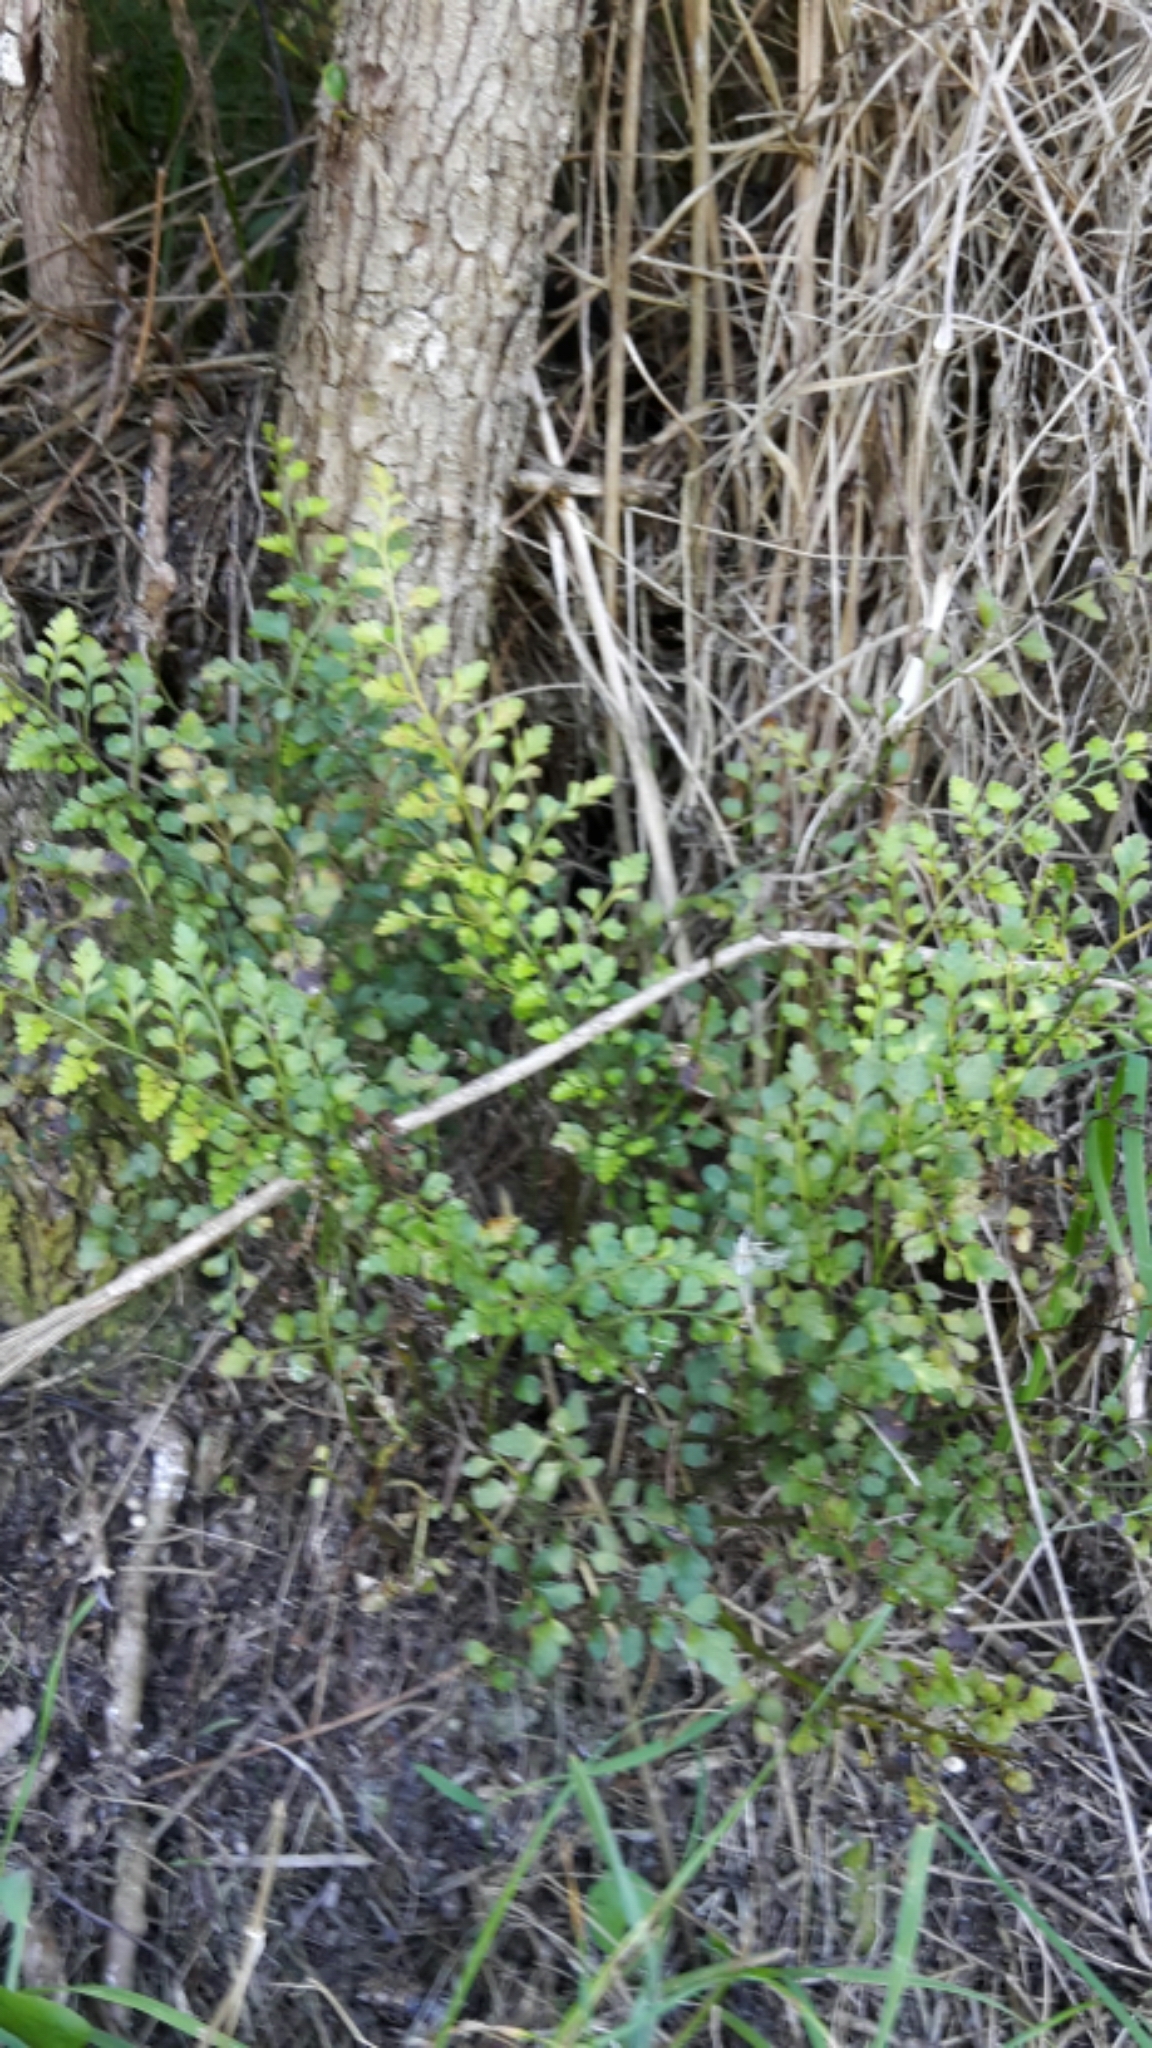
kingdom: Plantae
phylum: Tracheophyta
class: Polypodiopsida
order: Polypodiales
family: Aspleniaceae
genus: Asplenium
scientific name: Asplenium hookerianum
